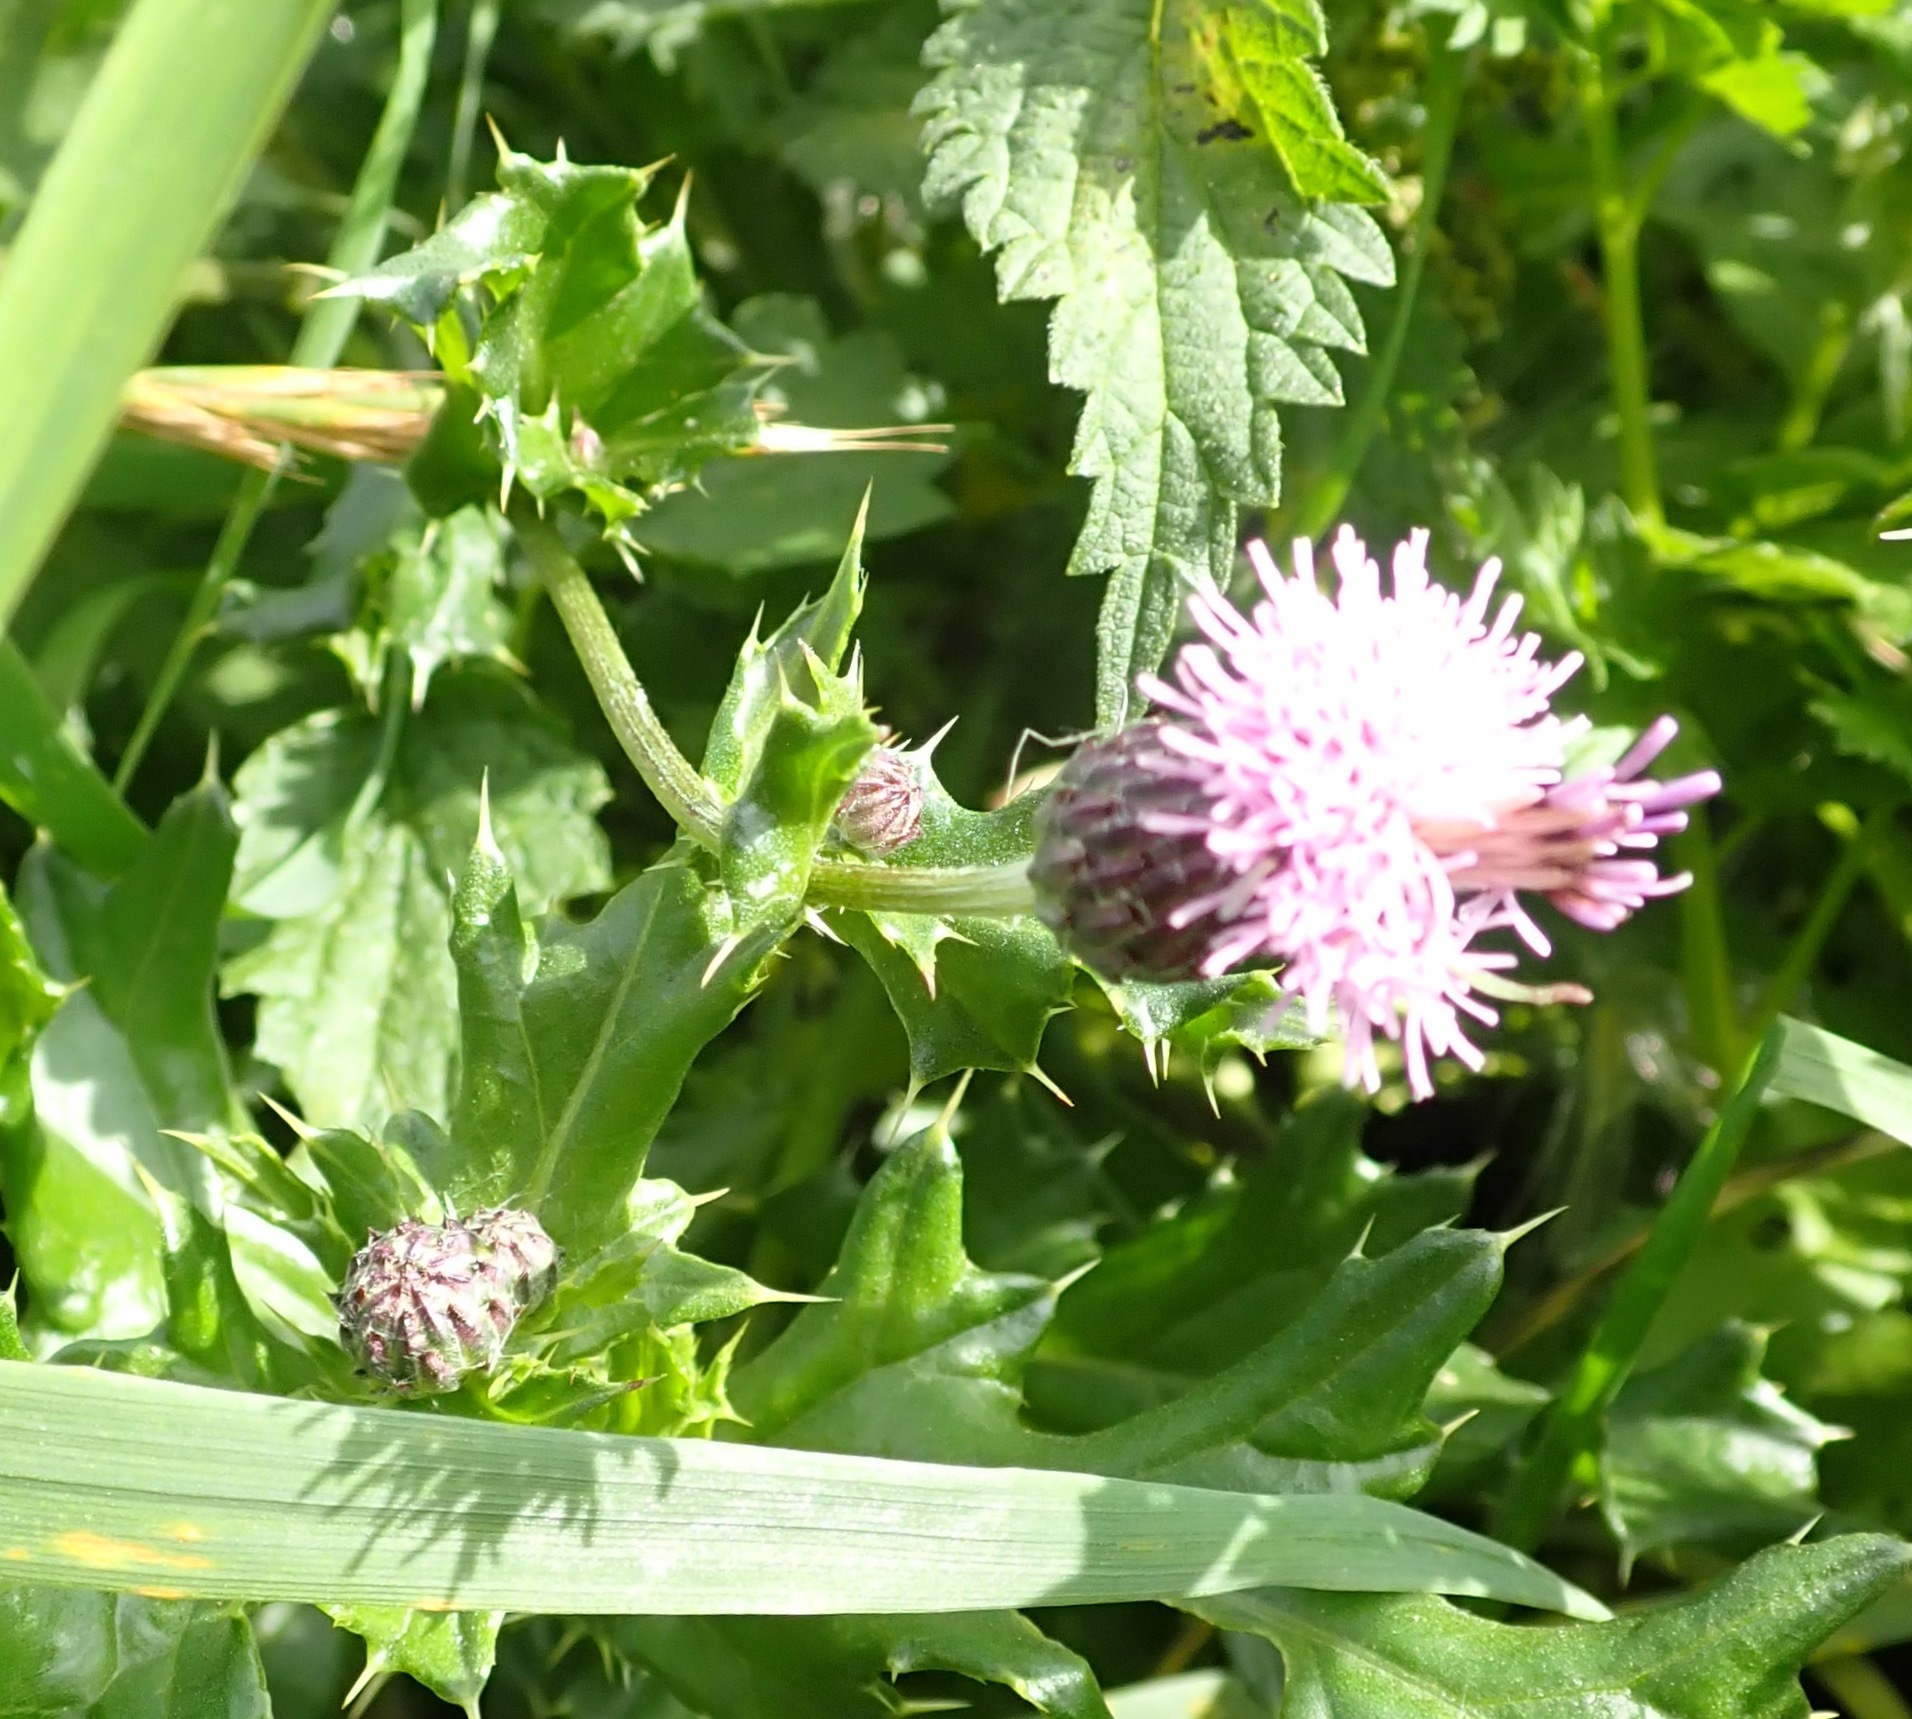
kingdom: Plantae
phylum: Tracheophyta
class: Magnoliopsida
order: Asterales
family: Asteraceae
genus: Cirsium
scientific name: Cirsium arvense
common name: Creeping thistle
